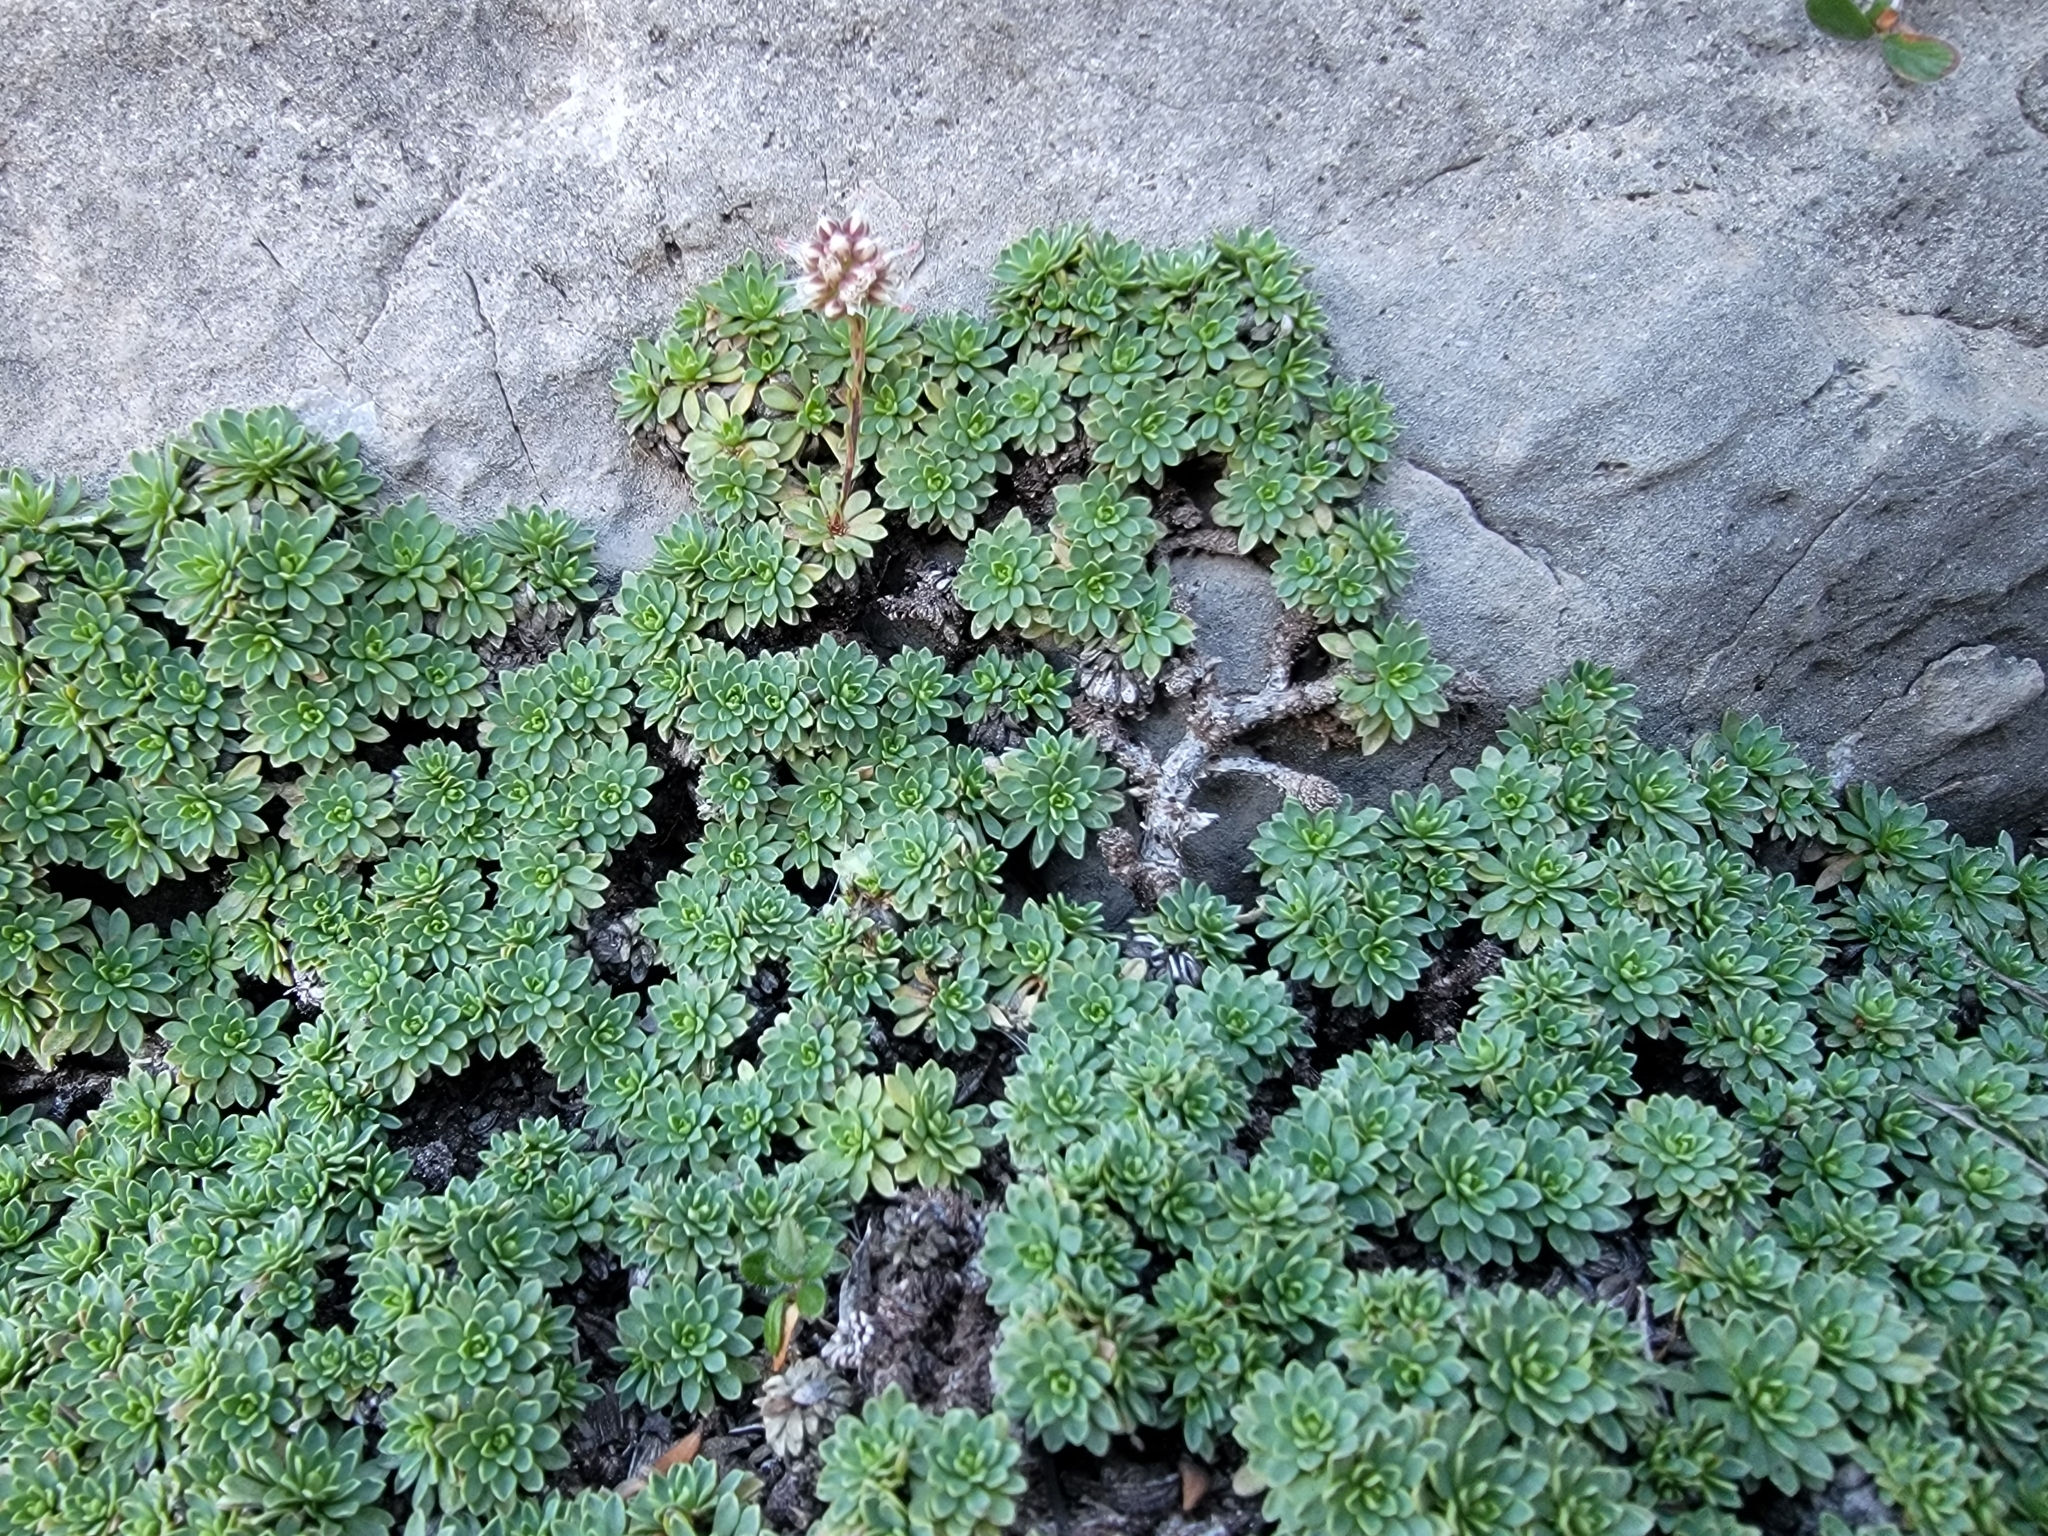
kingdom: Plantae
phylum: Tracheophyta
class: Magnoliopsida
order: Rosales
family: Rosaceae
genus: Petrophytum
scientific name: Petrophytum caespitosum
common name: Mat rockspirea
